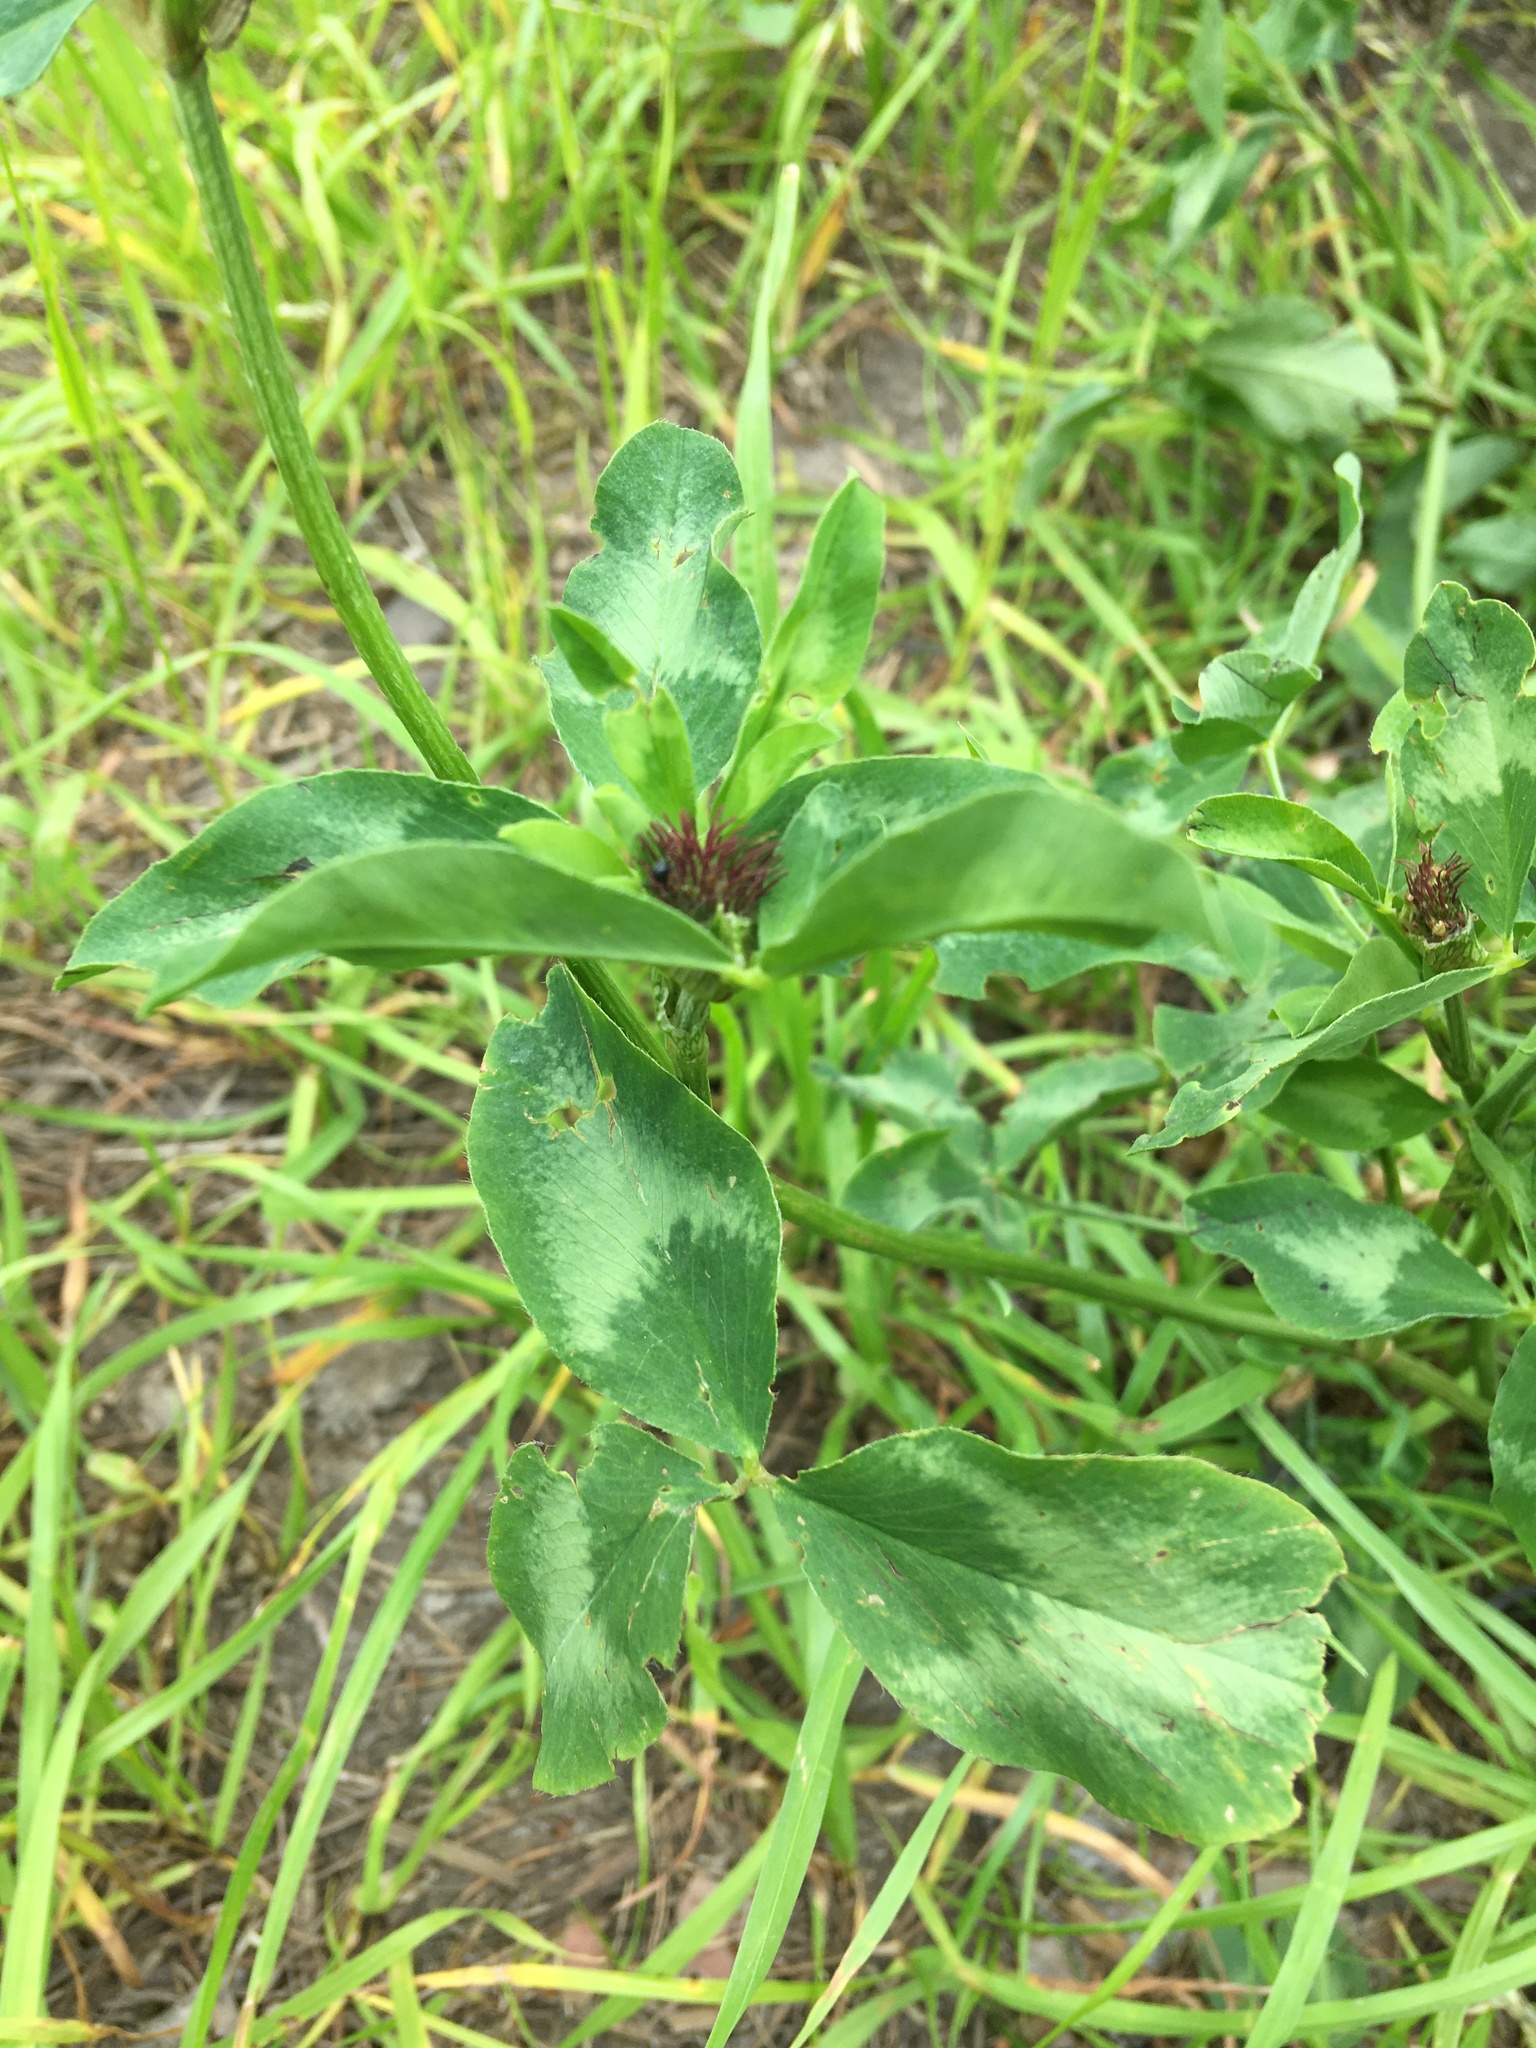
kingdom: Plantae
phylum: Tracheophyta
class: Magnoliopsida
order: Fabales
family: Fabaceae
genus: Trifolium
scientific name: Trifolium pratense
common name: Red clover
